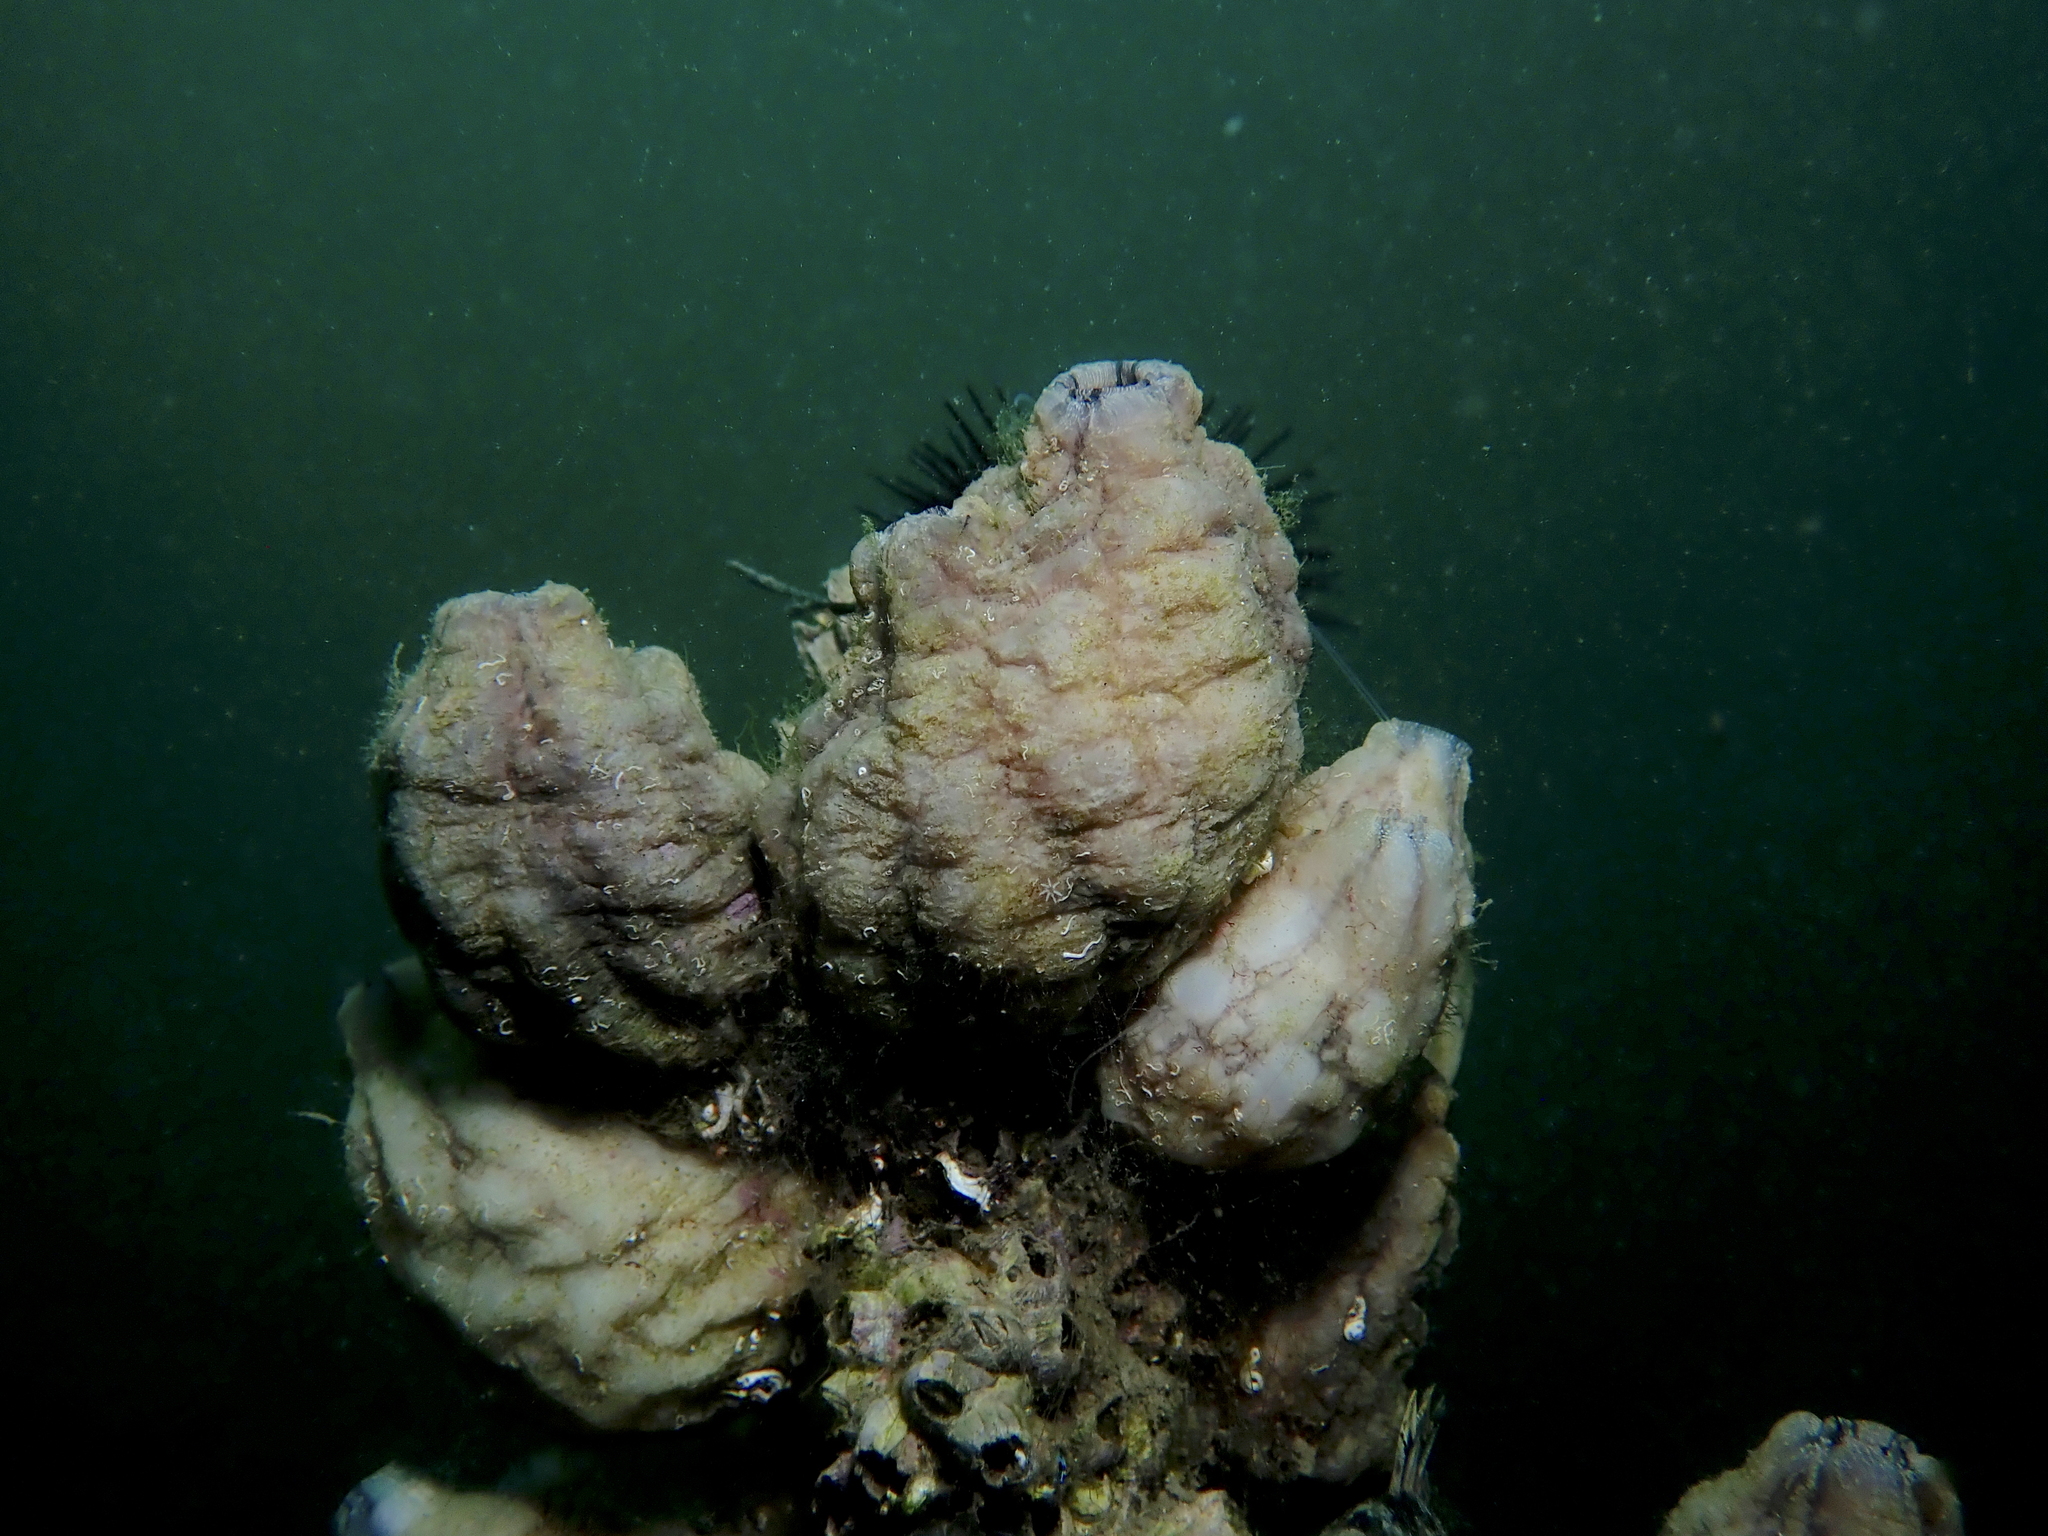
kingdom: Animalia
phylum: Chordata
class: Ascidiacea
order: Stolidobranchia
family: Styelidae
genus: Styela
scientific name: Styela plicata
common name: Pleated tunicate
